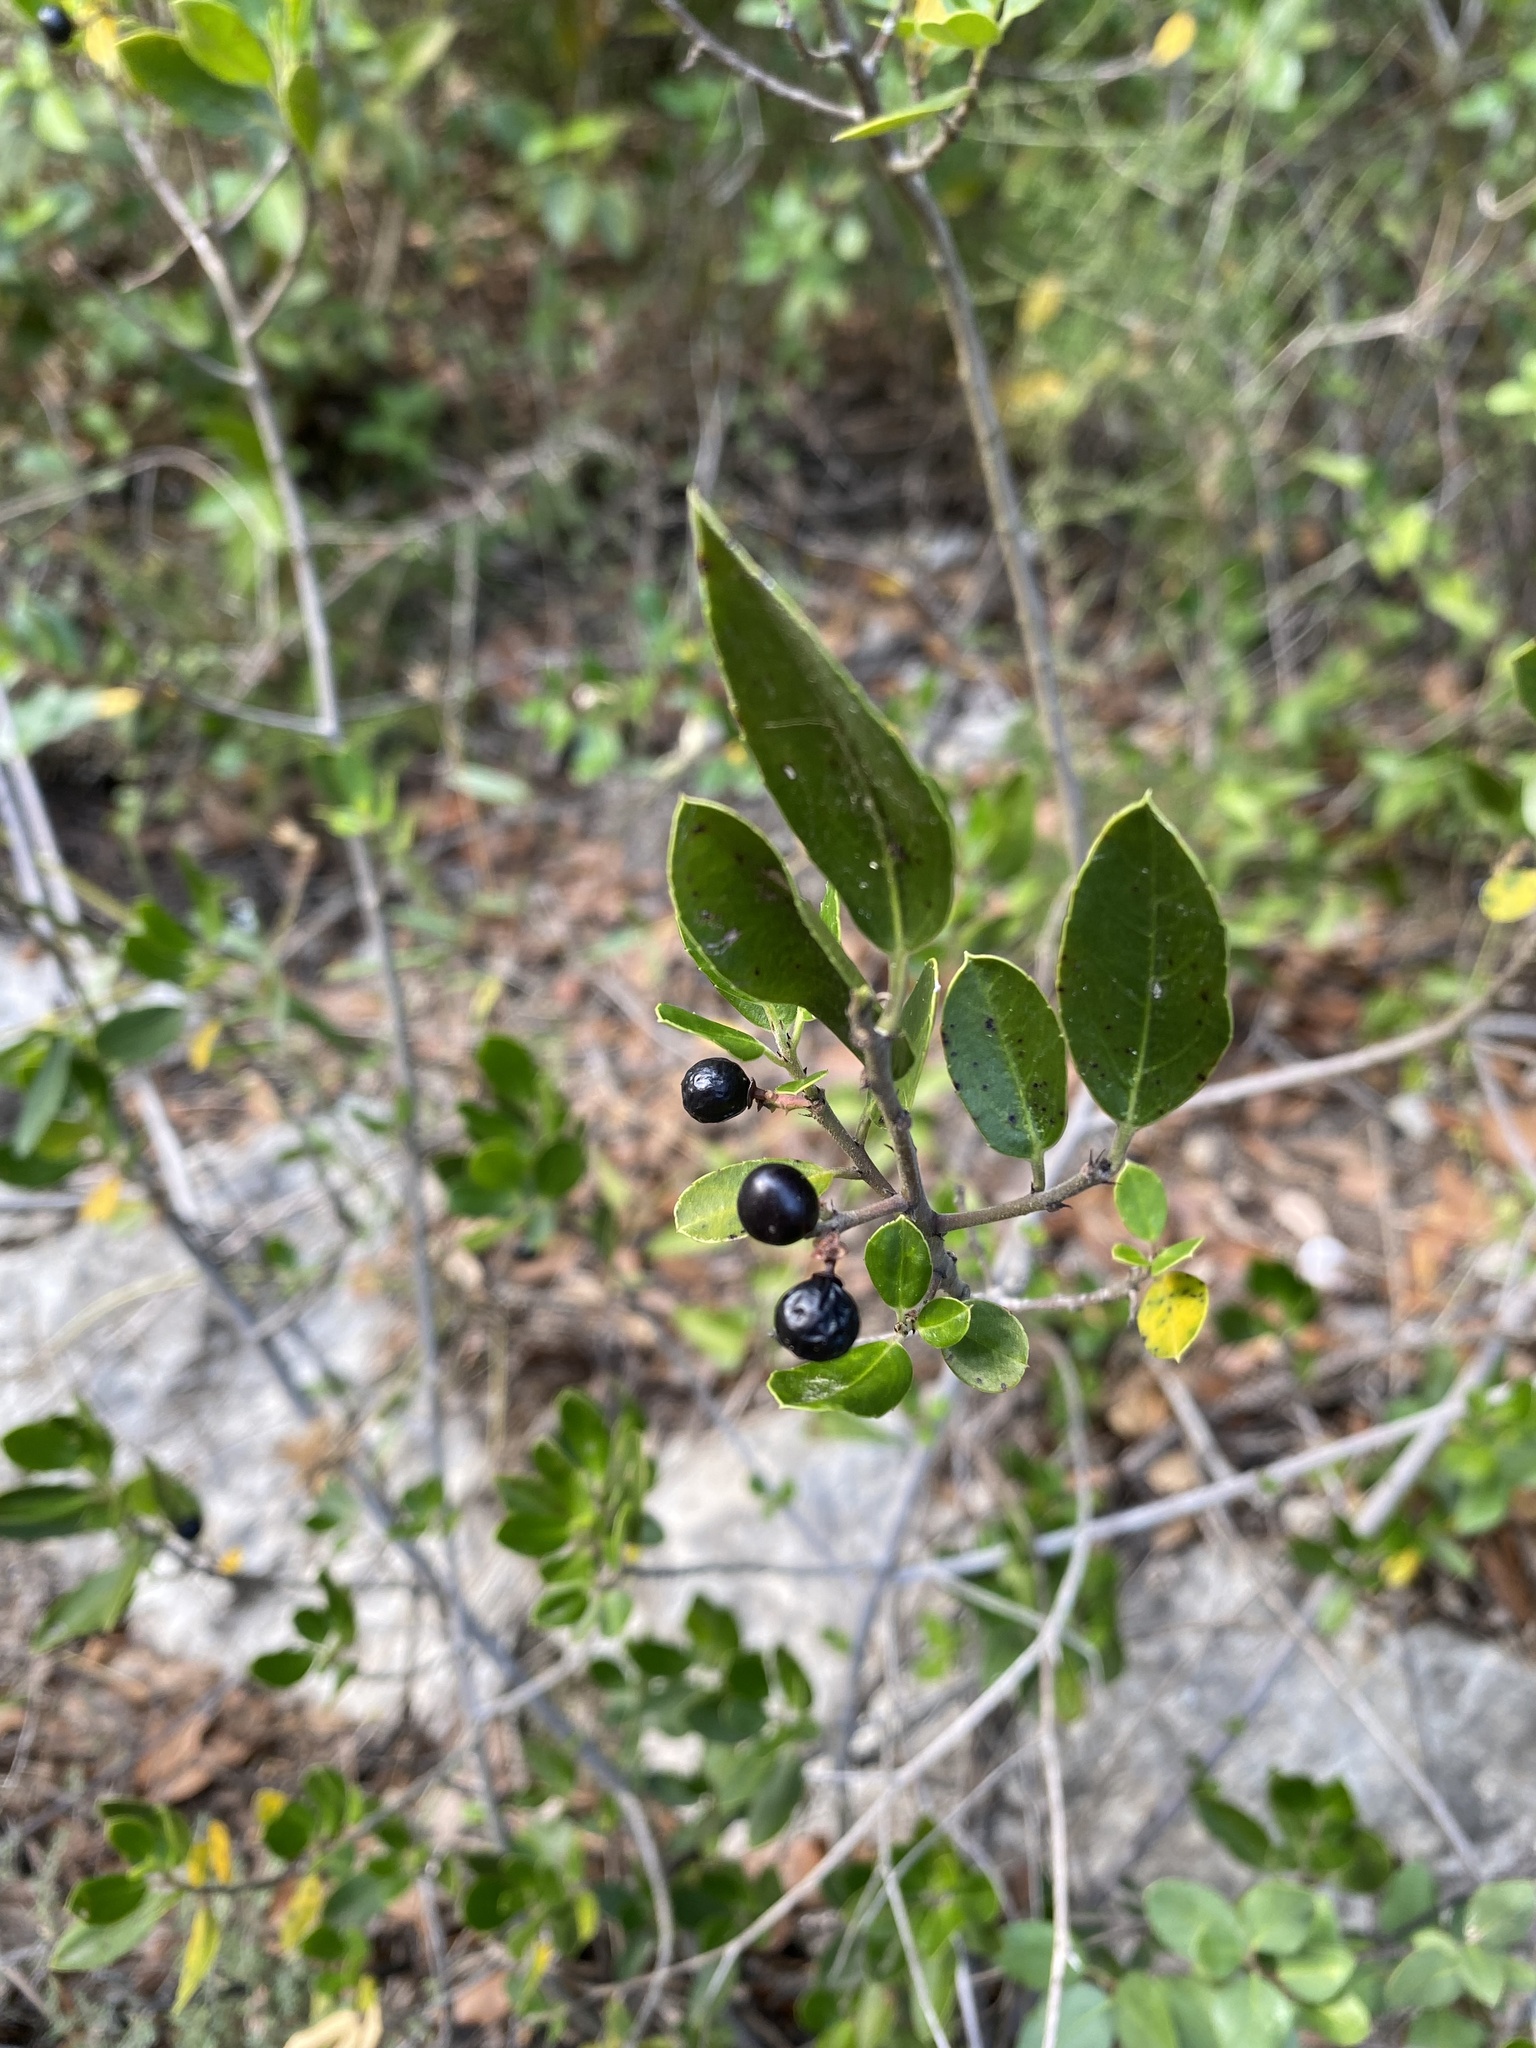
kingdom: Plantae
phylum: Tracheophyta
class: Magnoliopsida
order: Rosales
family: Rhamnaceae
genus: Rhamnus
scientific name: Rhamnus alaternus
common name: Mediterranean buckthorn
